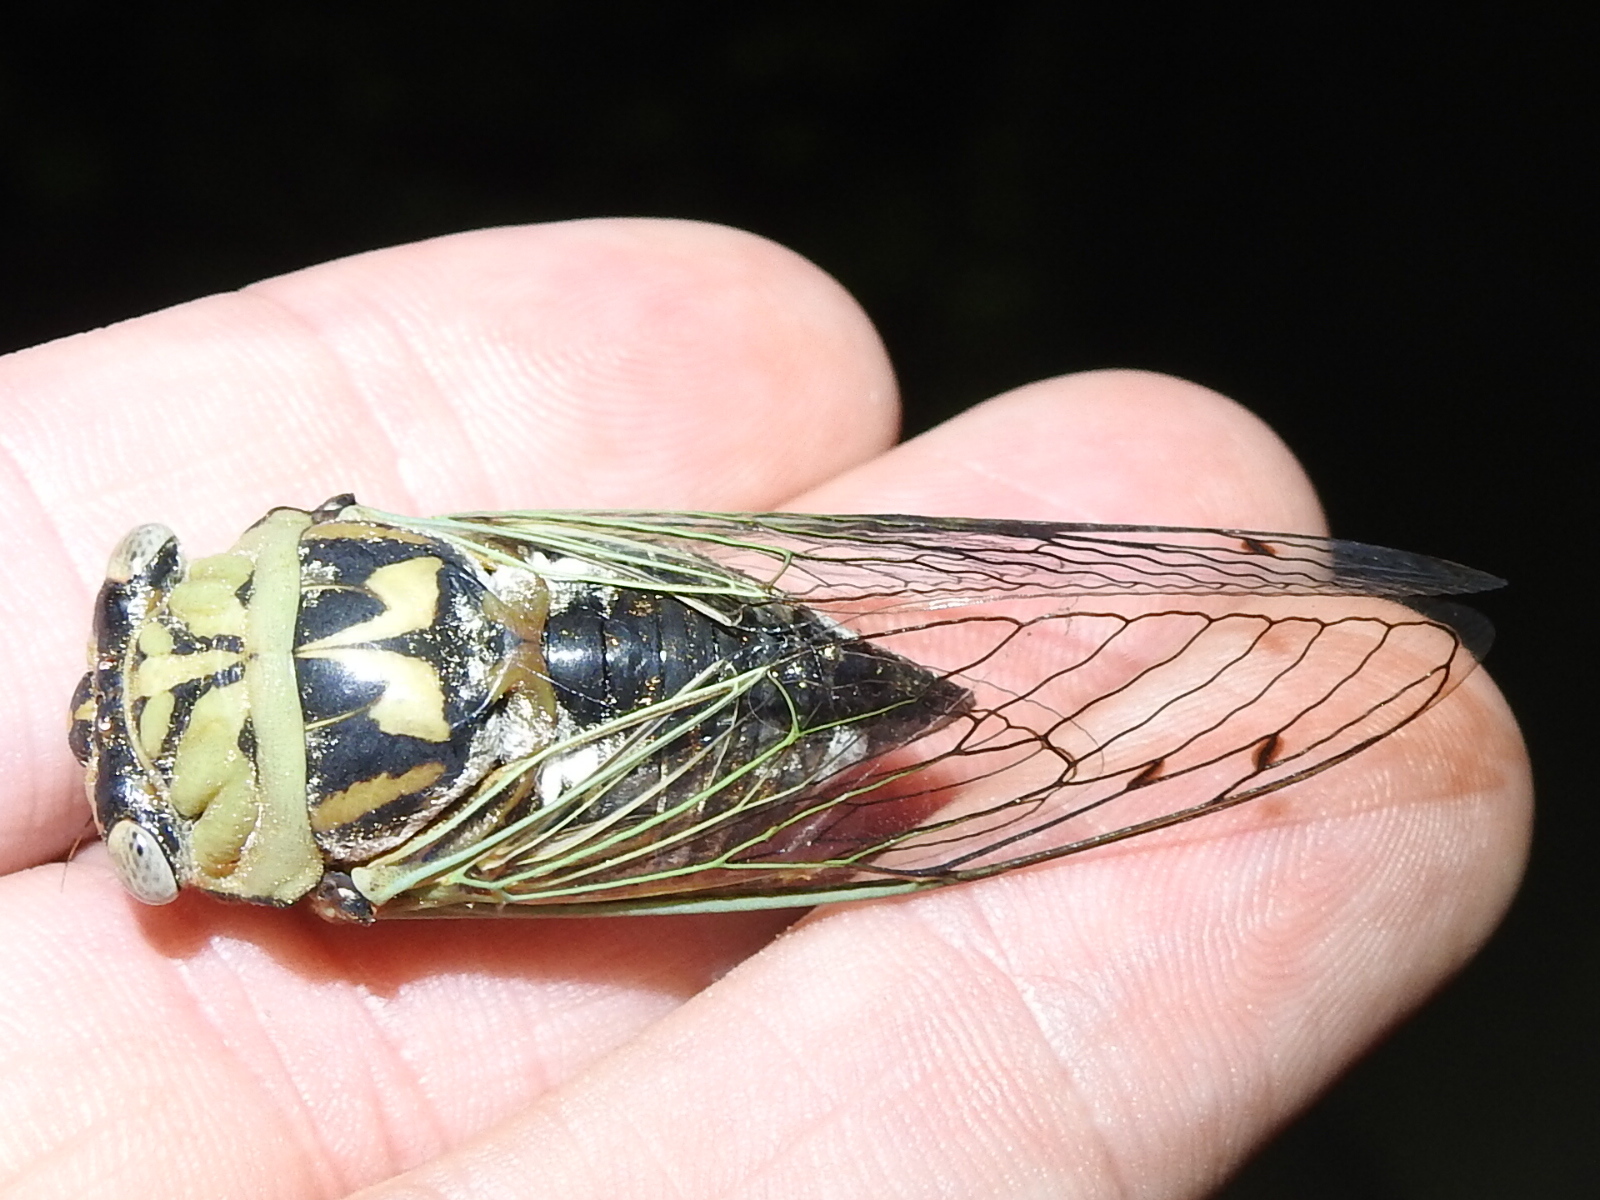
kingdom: Animalia
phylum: Arthropoda
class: Insecta
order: Hemiptera
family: Cicadidae
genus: Megatibicen
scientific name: Megatibicen resh
